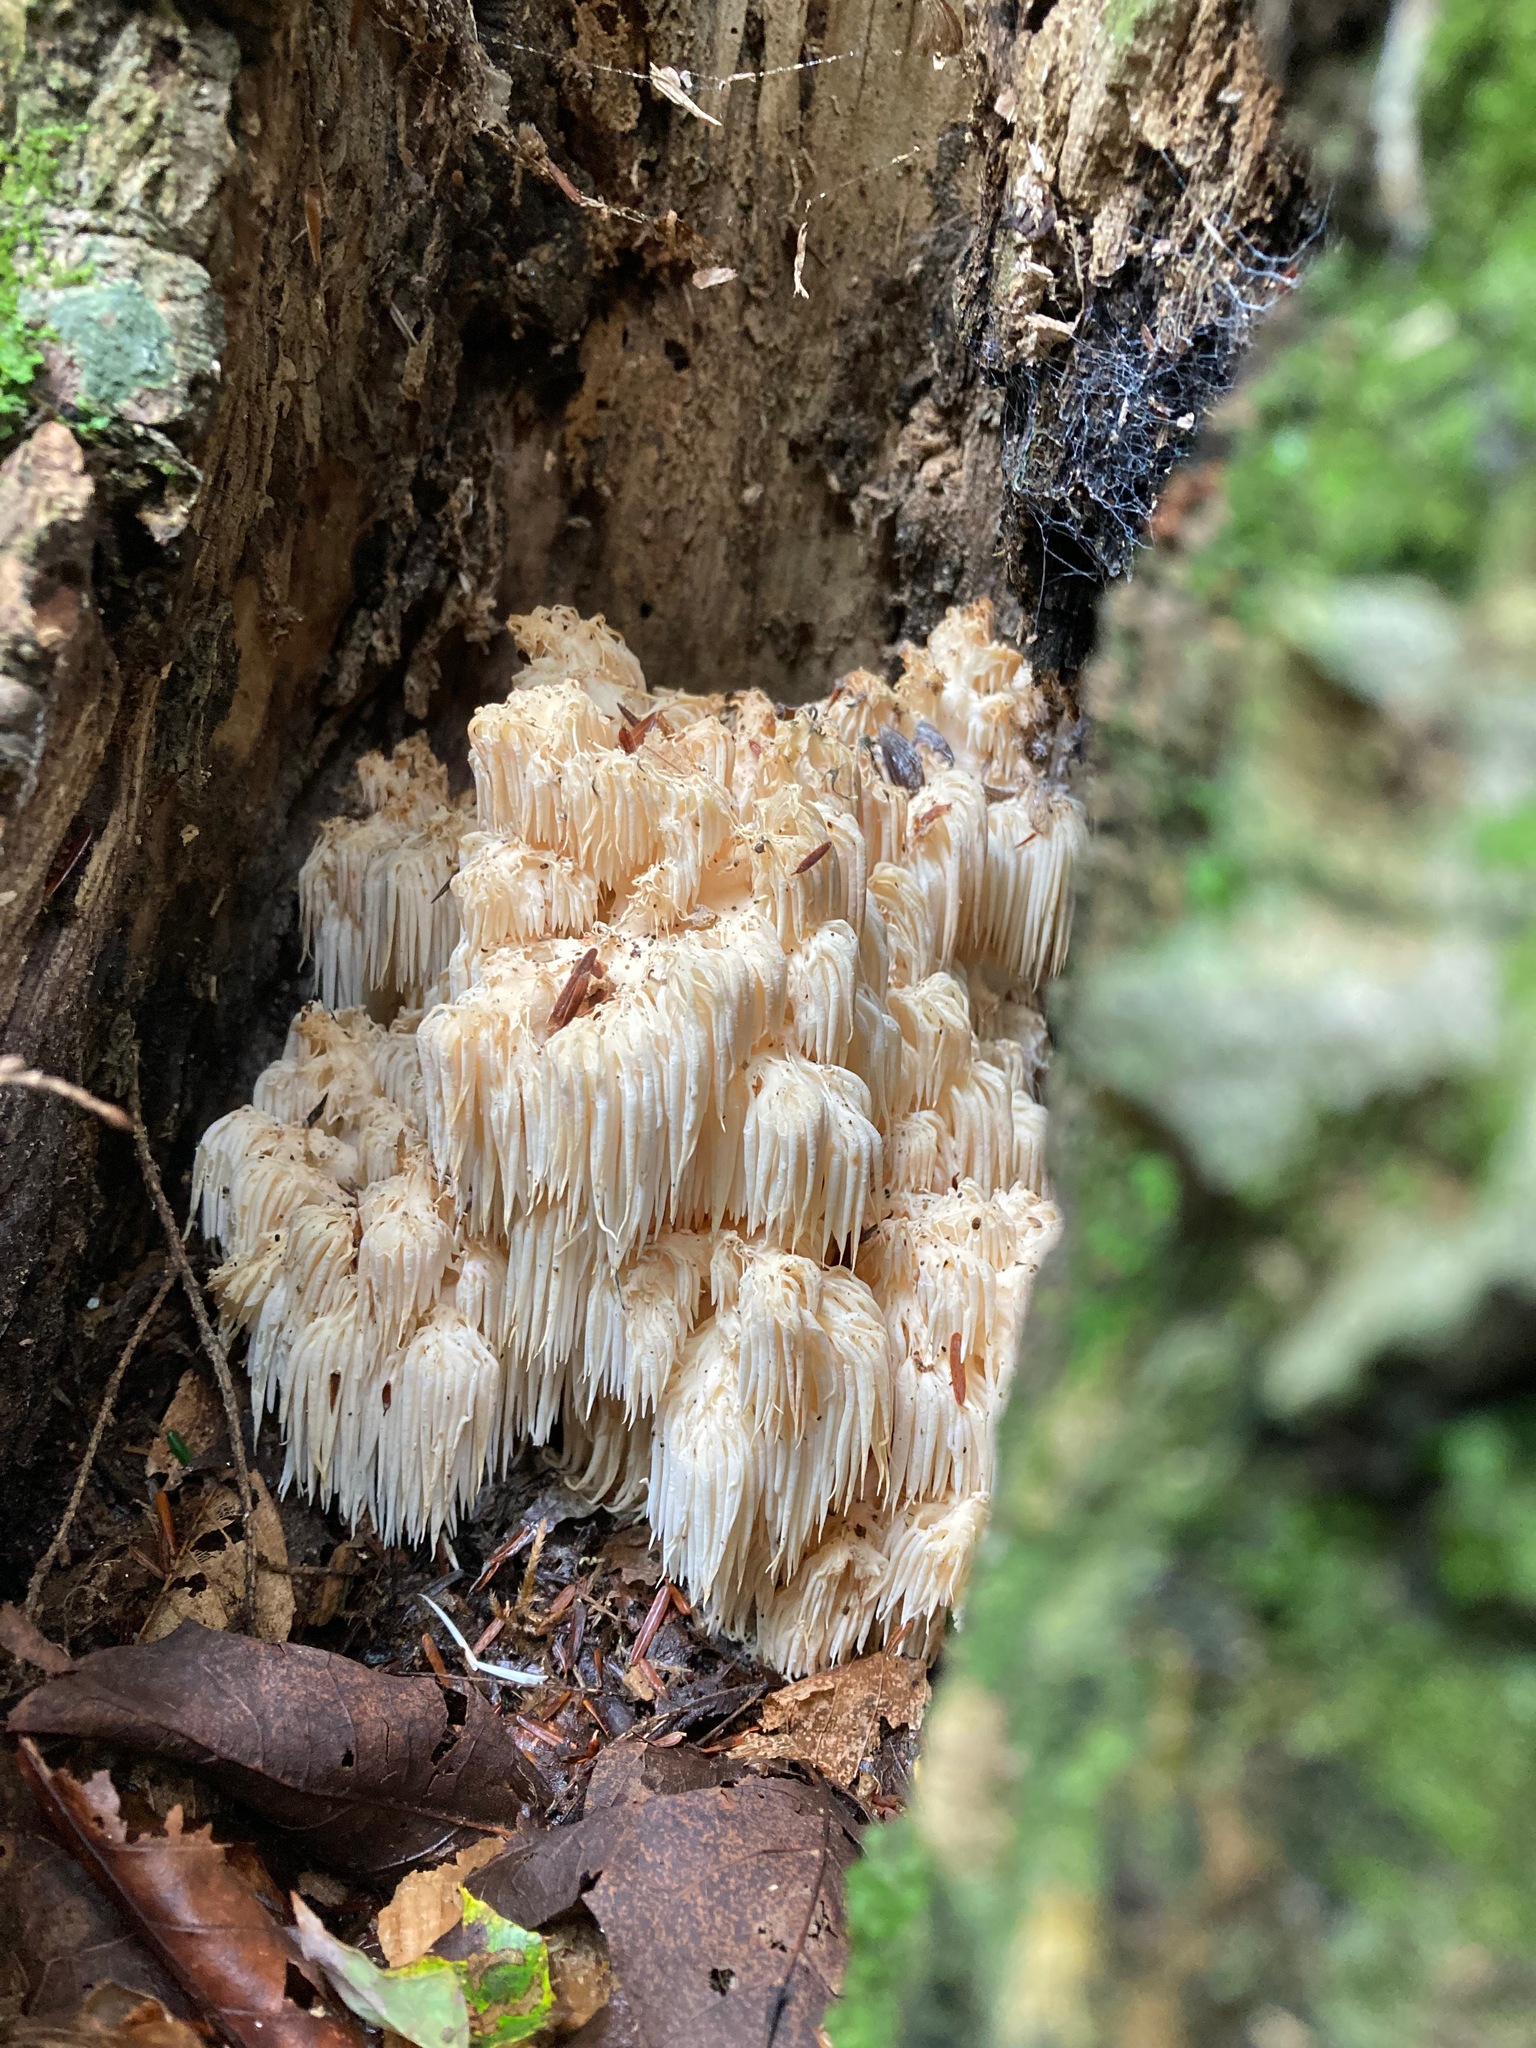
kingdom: Fungi
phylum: Basidiomycota
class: Agaricomycetes
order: Russulales
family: Hericiaceae
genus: Hericium
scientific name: Hericium americanum
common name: Bear's head tooth
